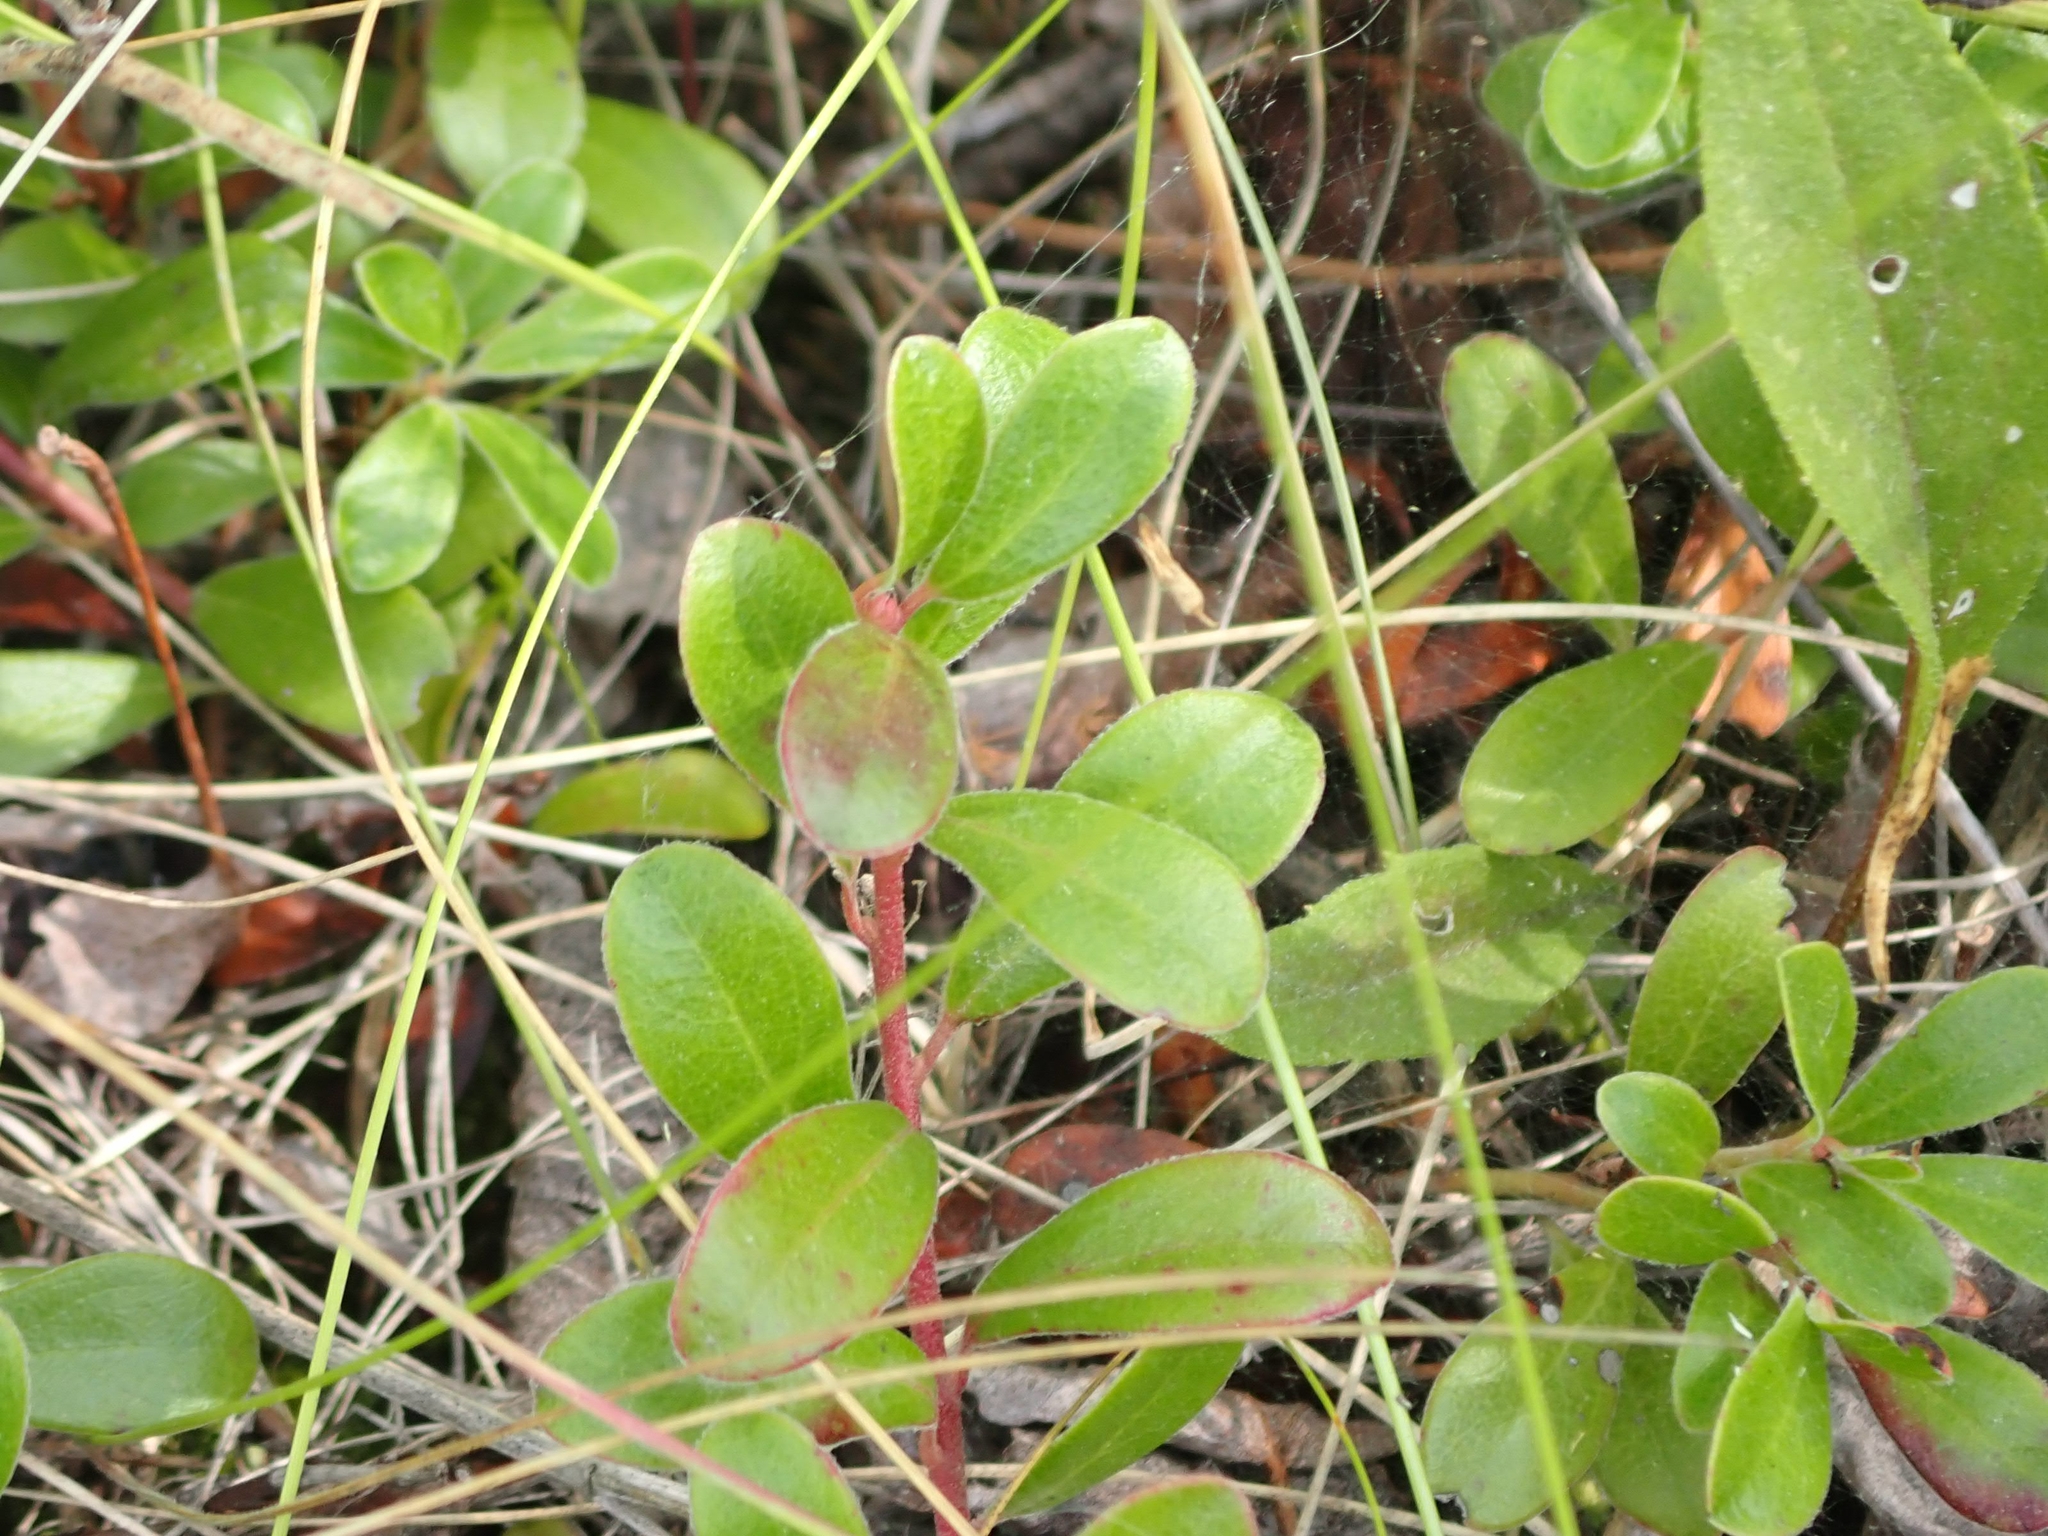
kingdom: Plantae
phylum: Tracheophyta
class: Magnoliopsida
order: Ericales
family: Ericaceae
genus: Arctostaphylos
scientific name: Arctostaphylos uva-ursi
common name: Bearberry
